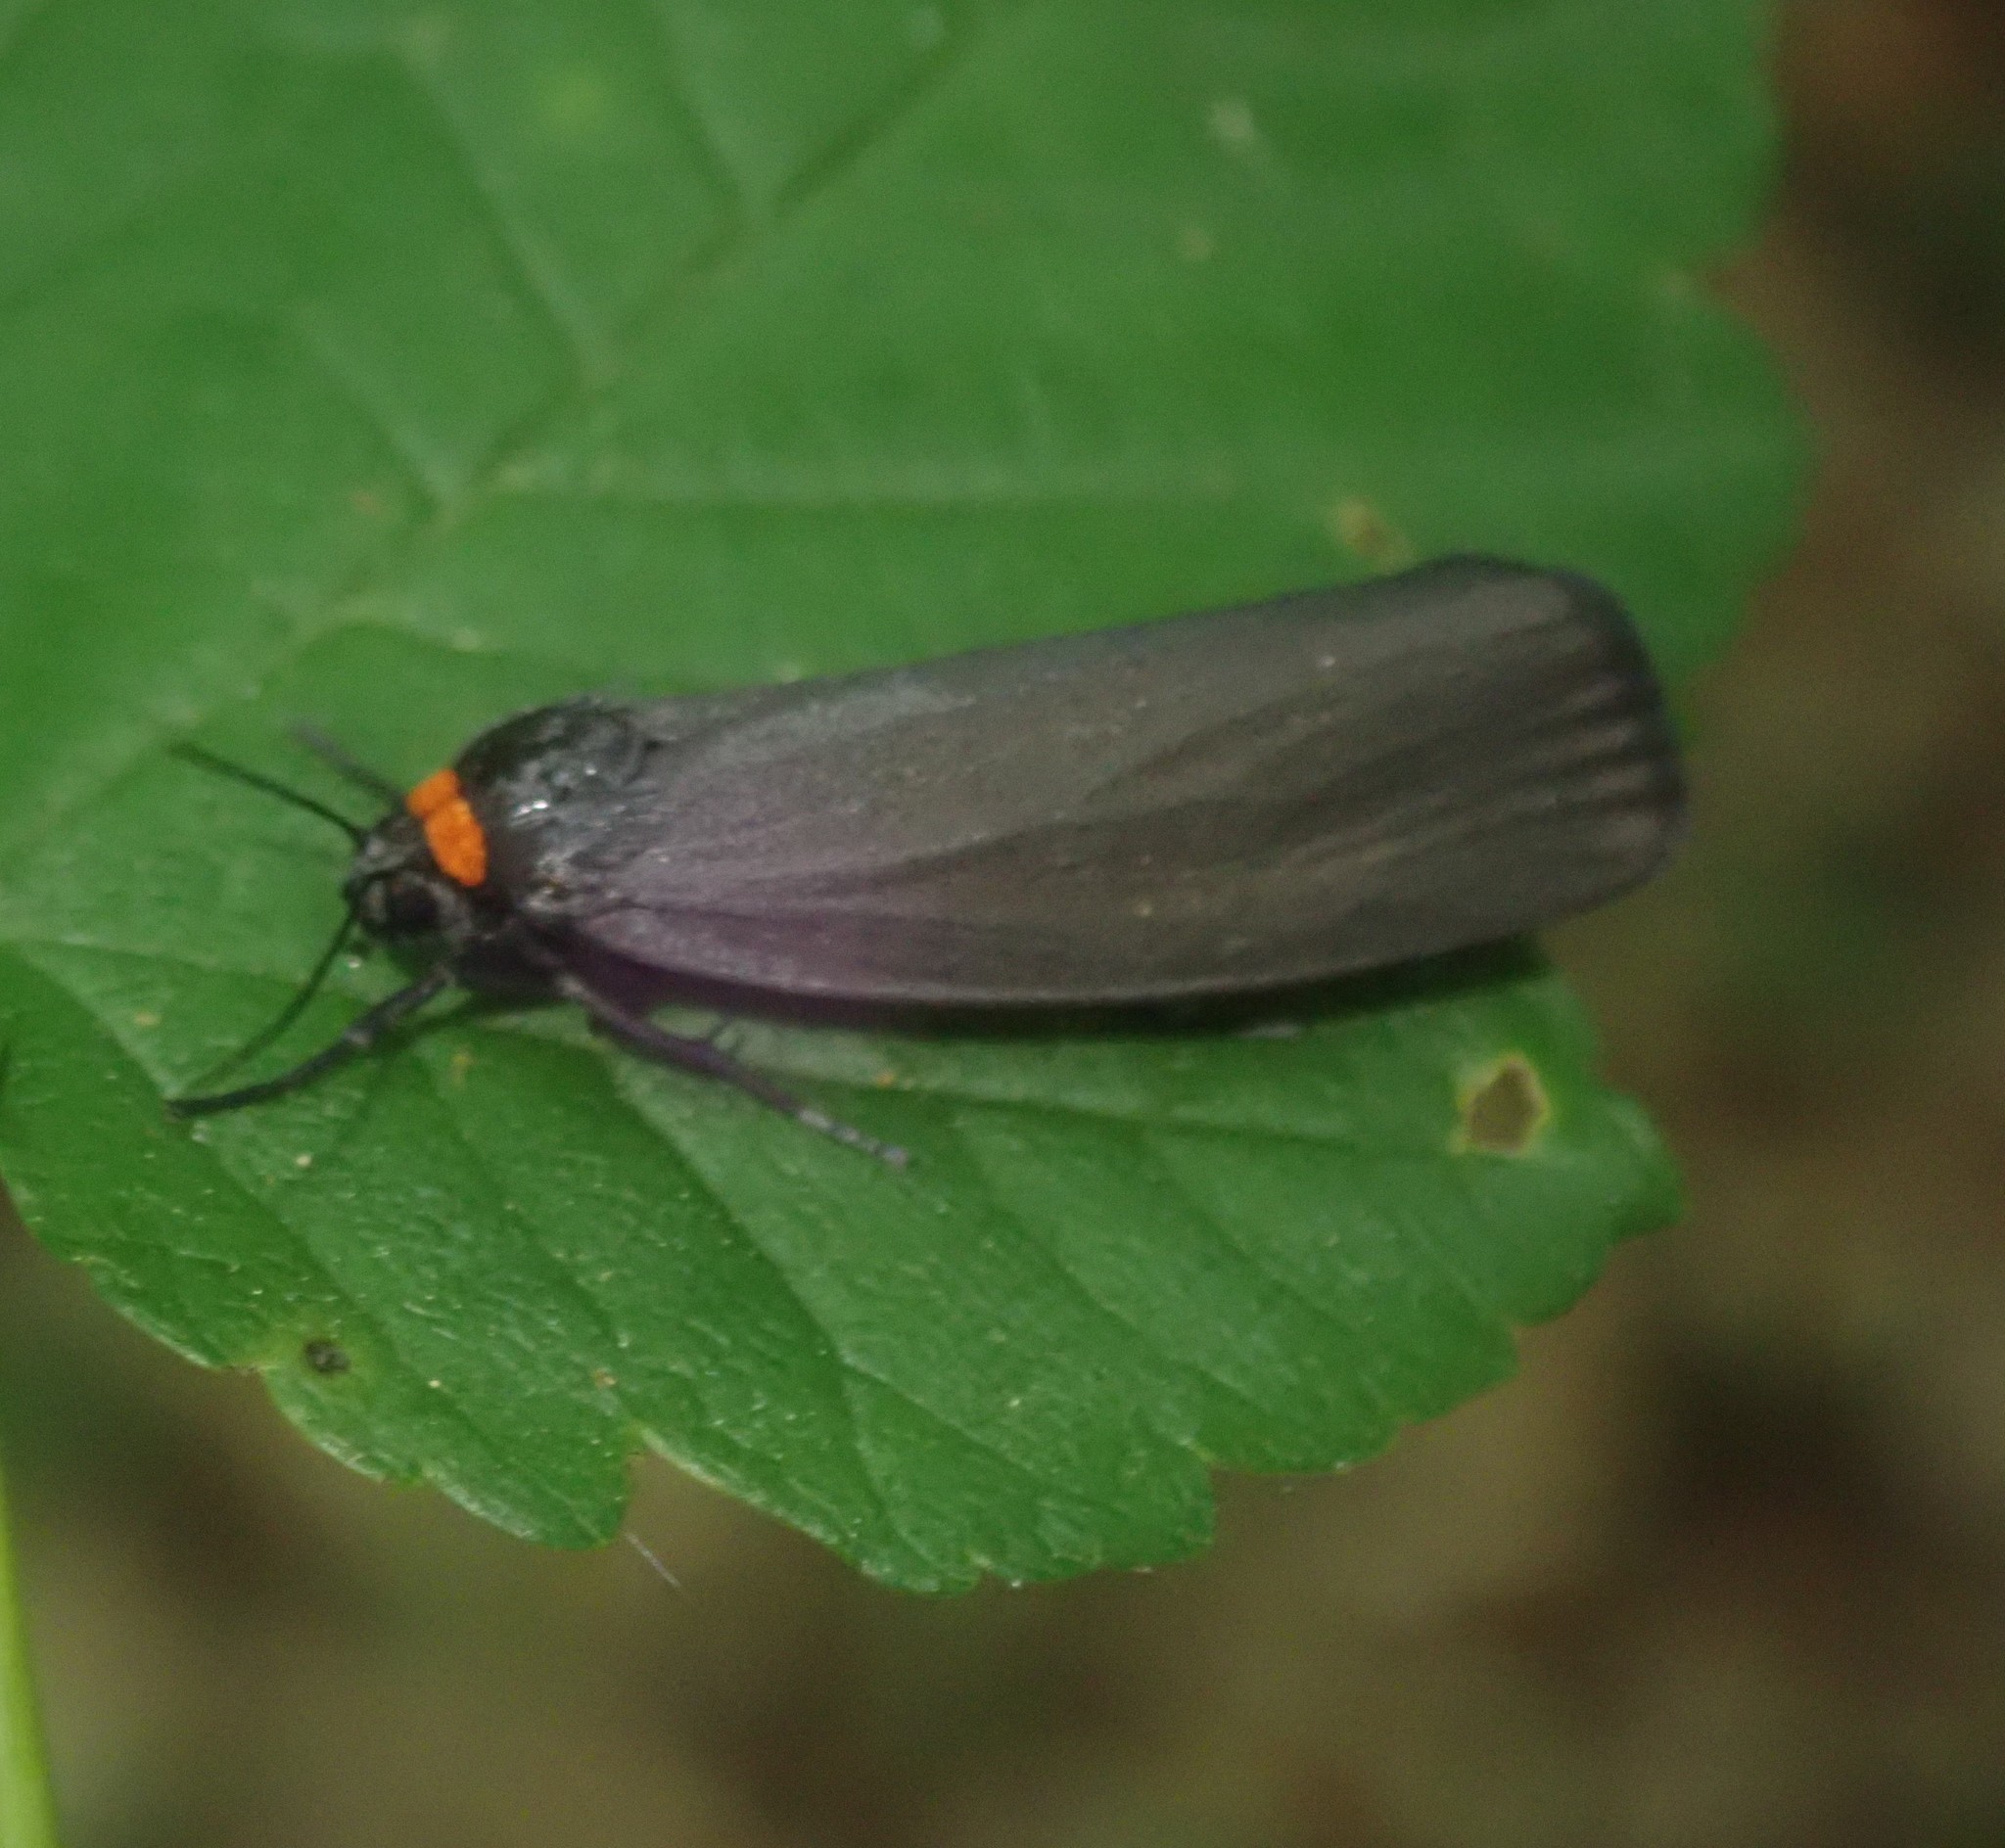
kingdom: Animalia
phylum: Arthropoda
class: Insecta
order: Lepidoptera
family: Erebidae
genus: Atolmis
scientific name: Atolmis rubricollis
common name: Red-necked footman
